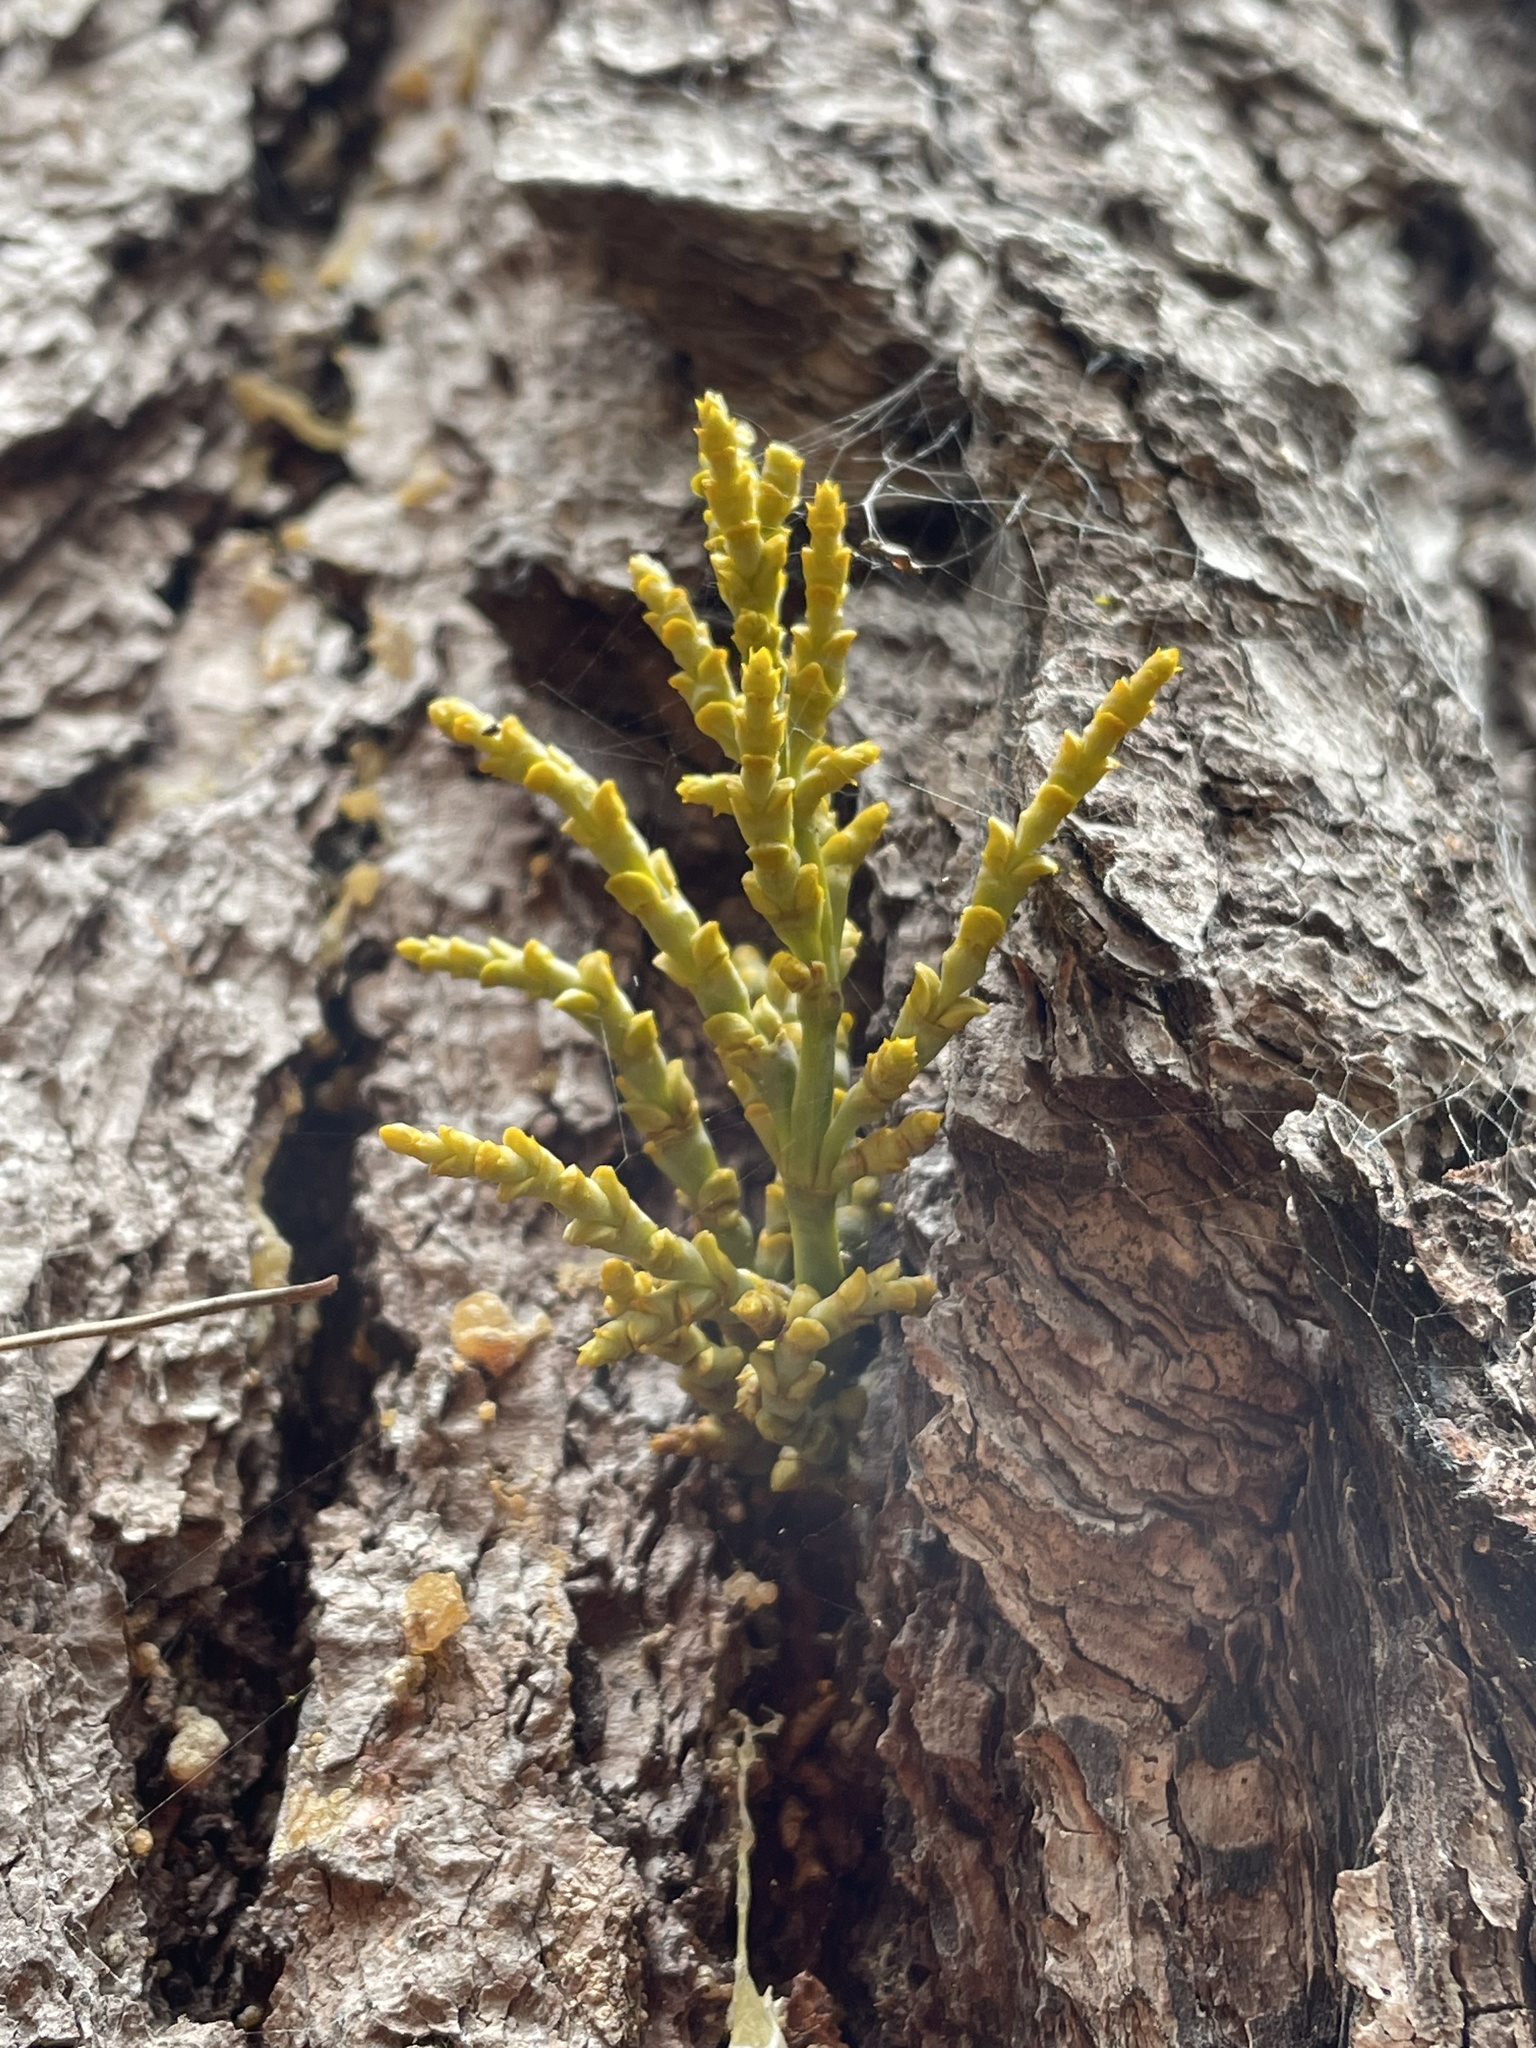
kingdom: Plantae
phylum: Tracheophyta
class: Magnoliopsida
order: Santalales
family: Viscaceae
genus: Arceuthobium
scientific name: Arceuthobium campylopodum
